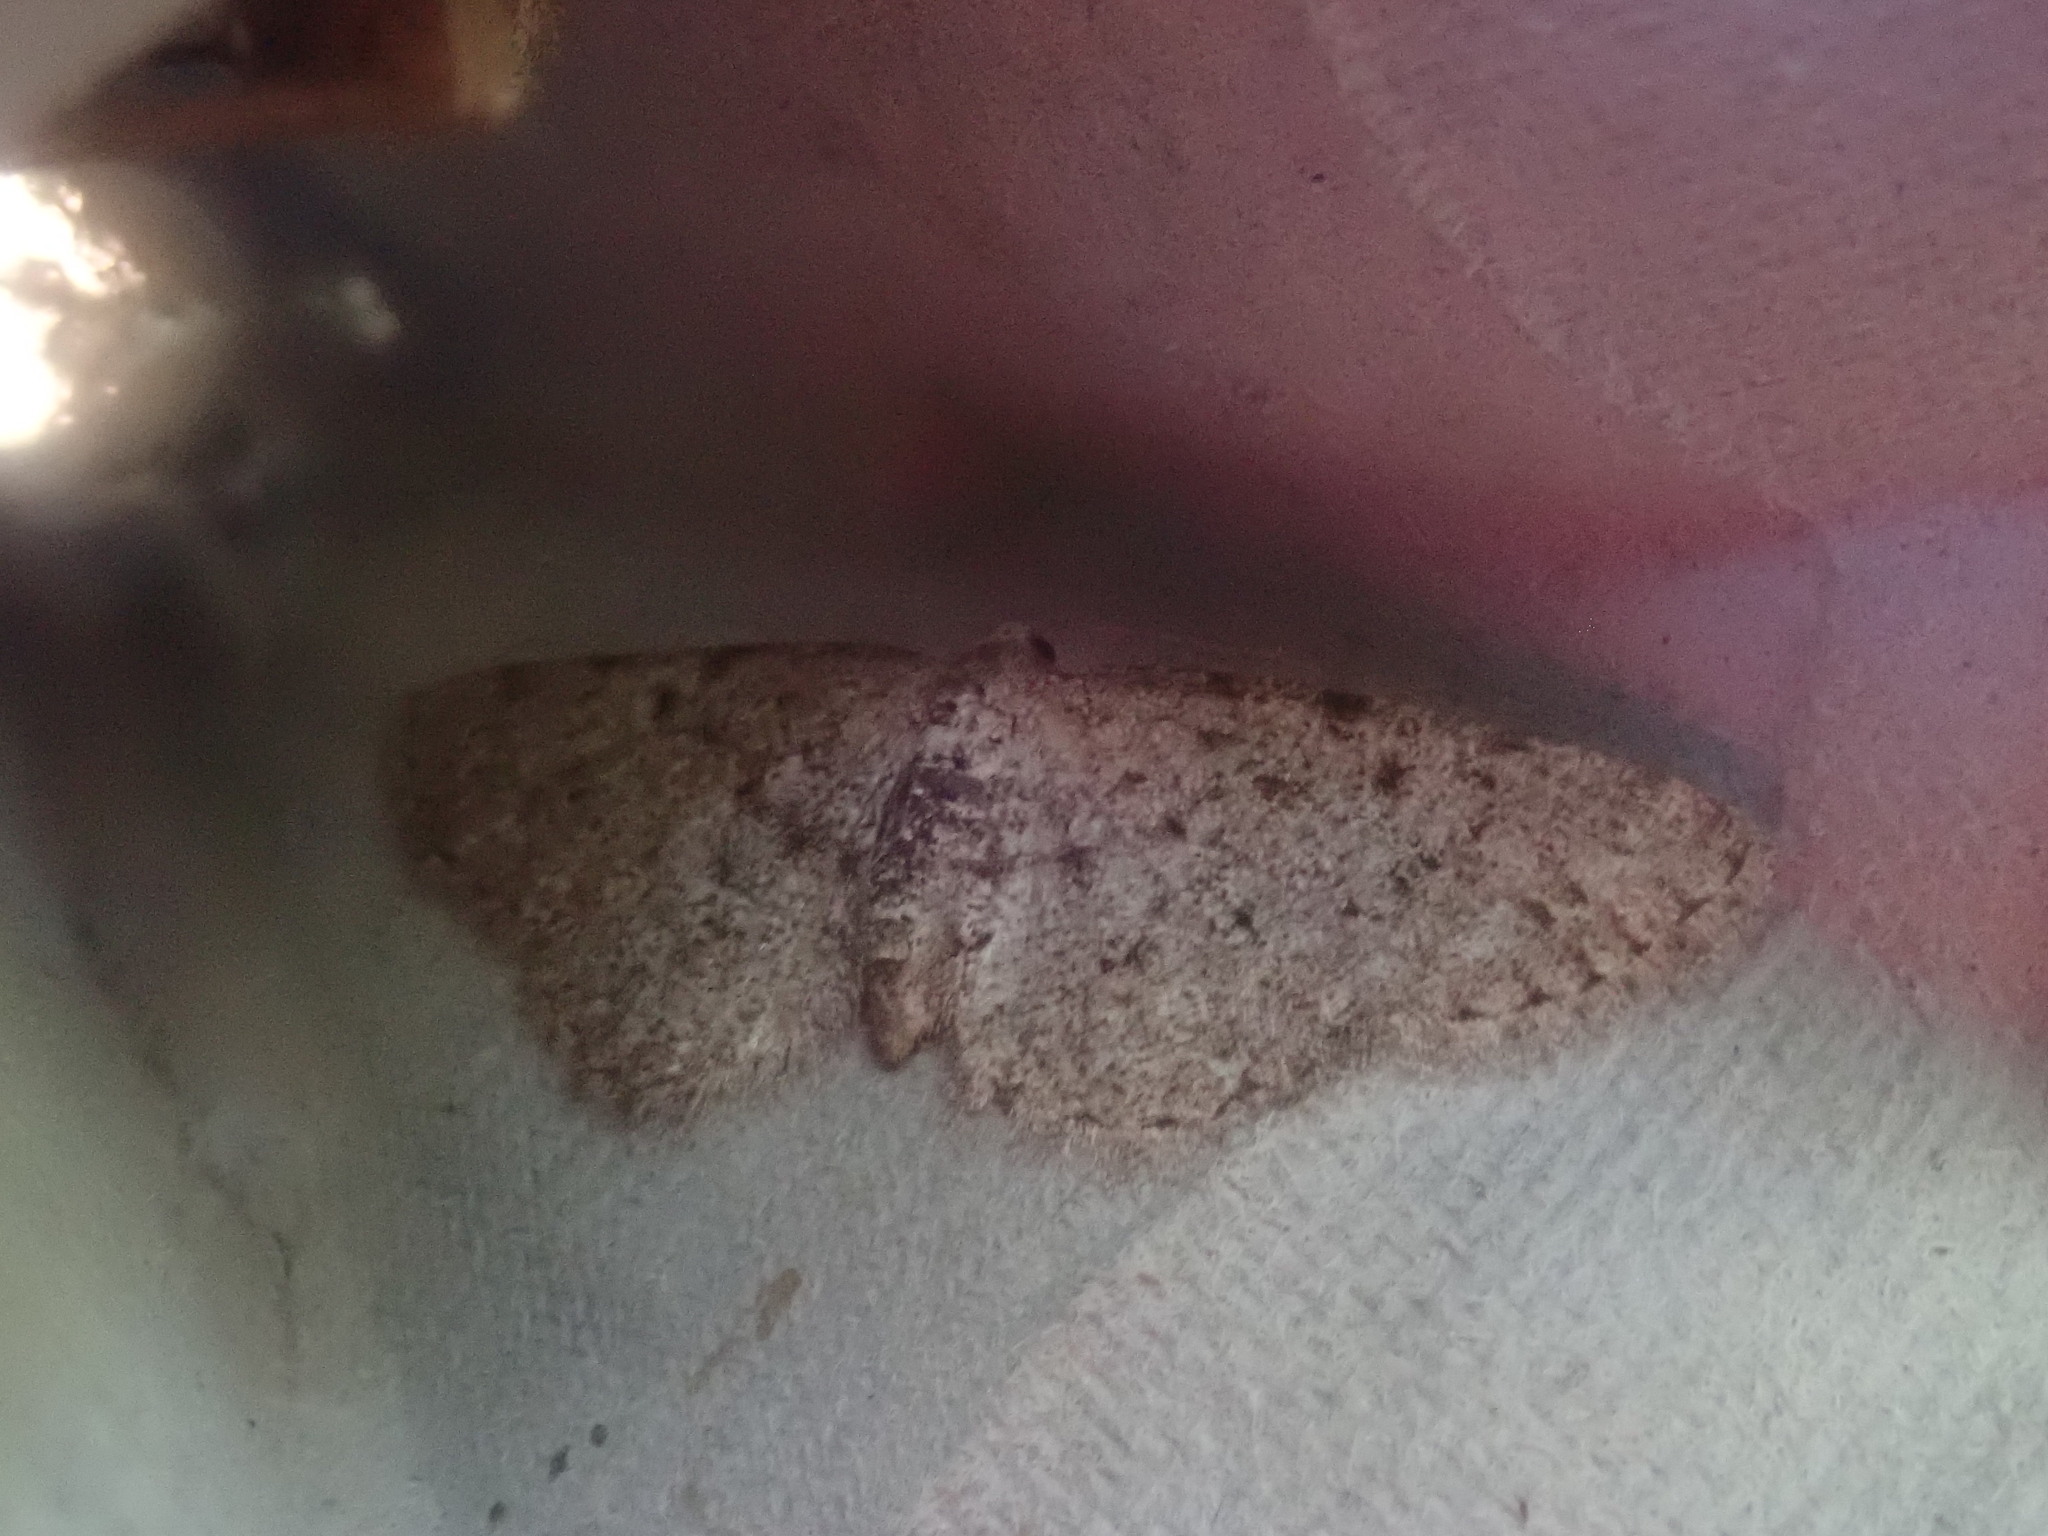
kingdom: Animalia
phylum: Arthropoda
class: Insecta
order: Lepidoptera
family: Geometridae
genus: Aethalura
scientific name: Aethalura intertexta
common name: Four-barred gray
